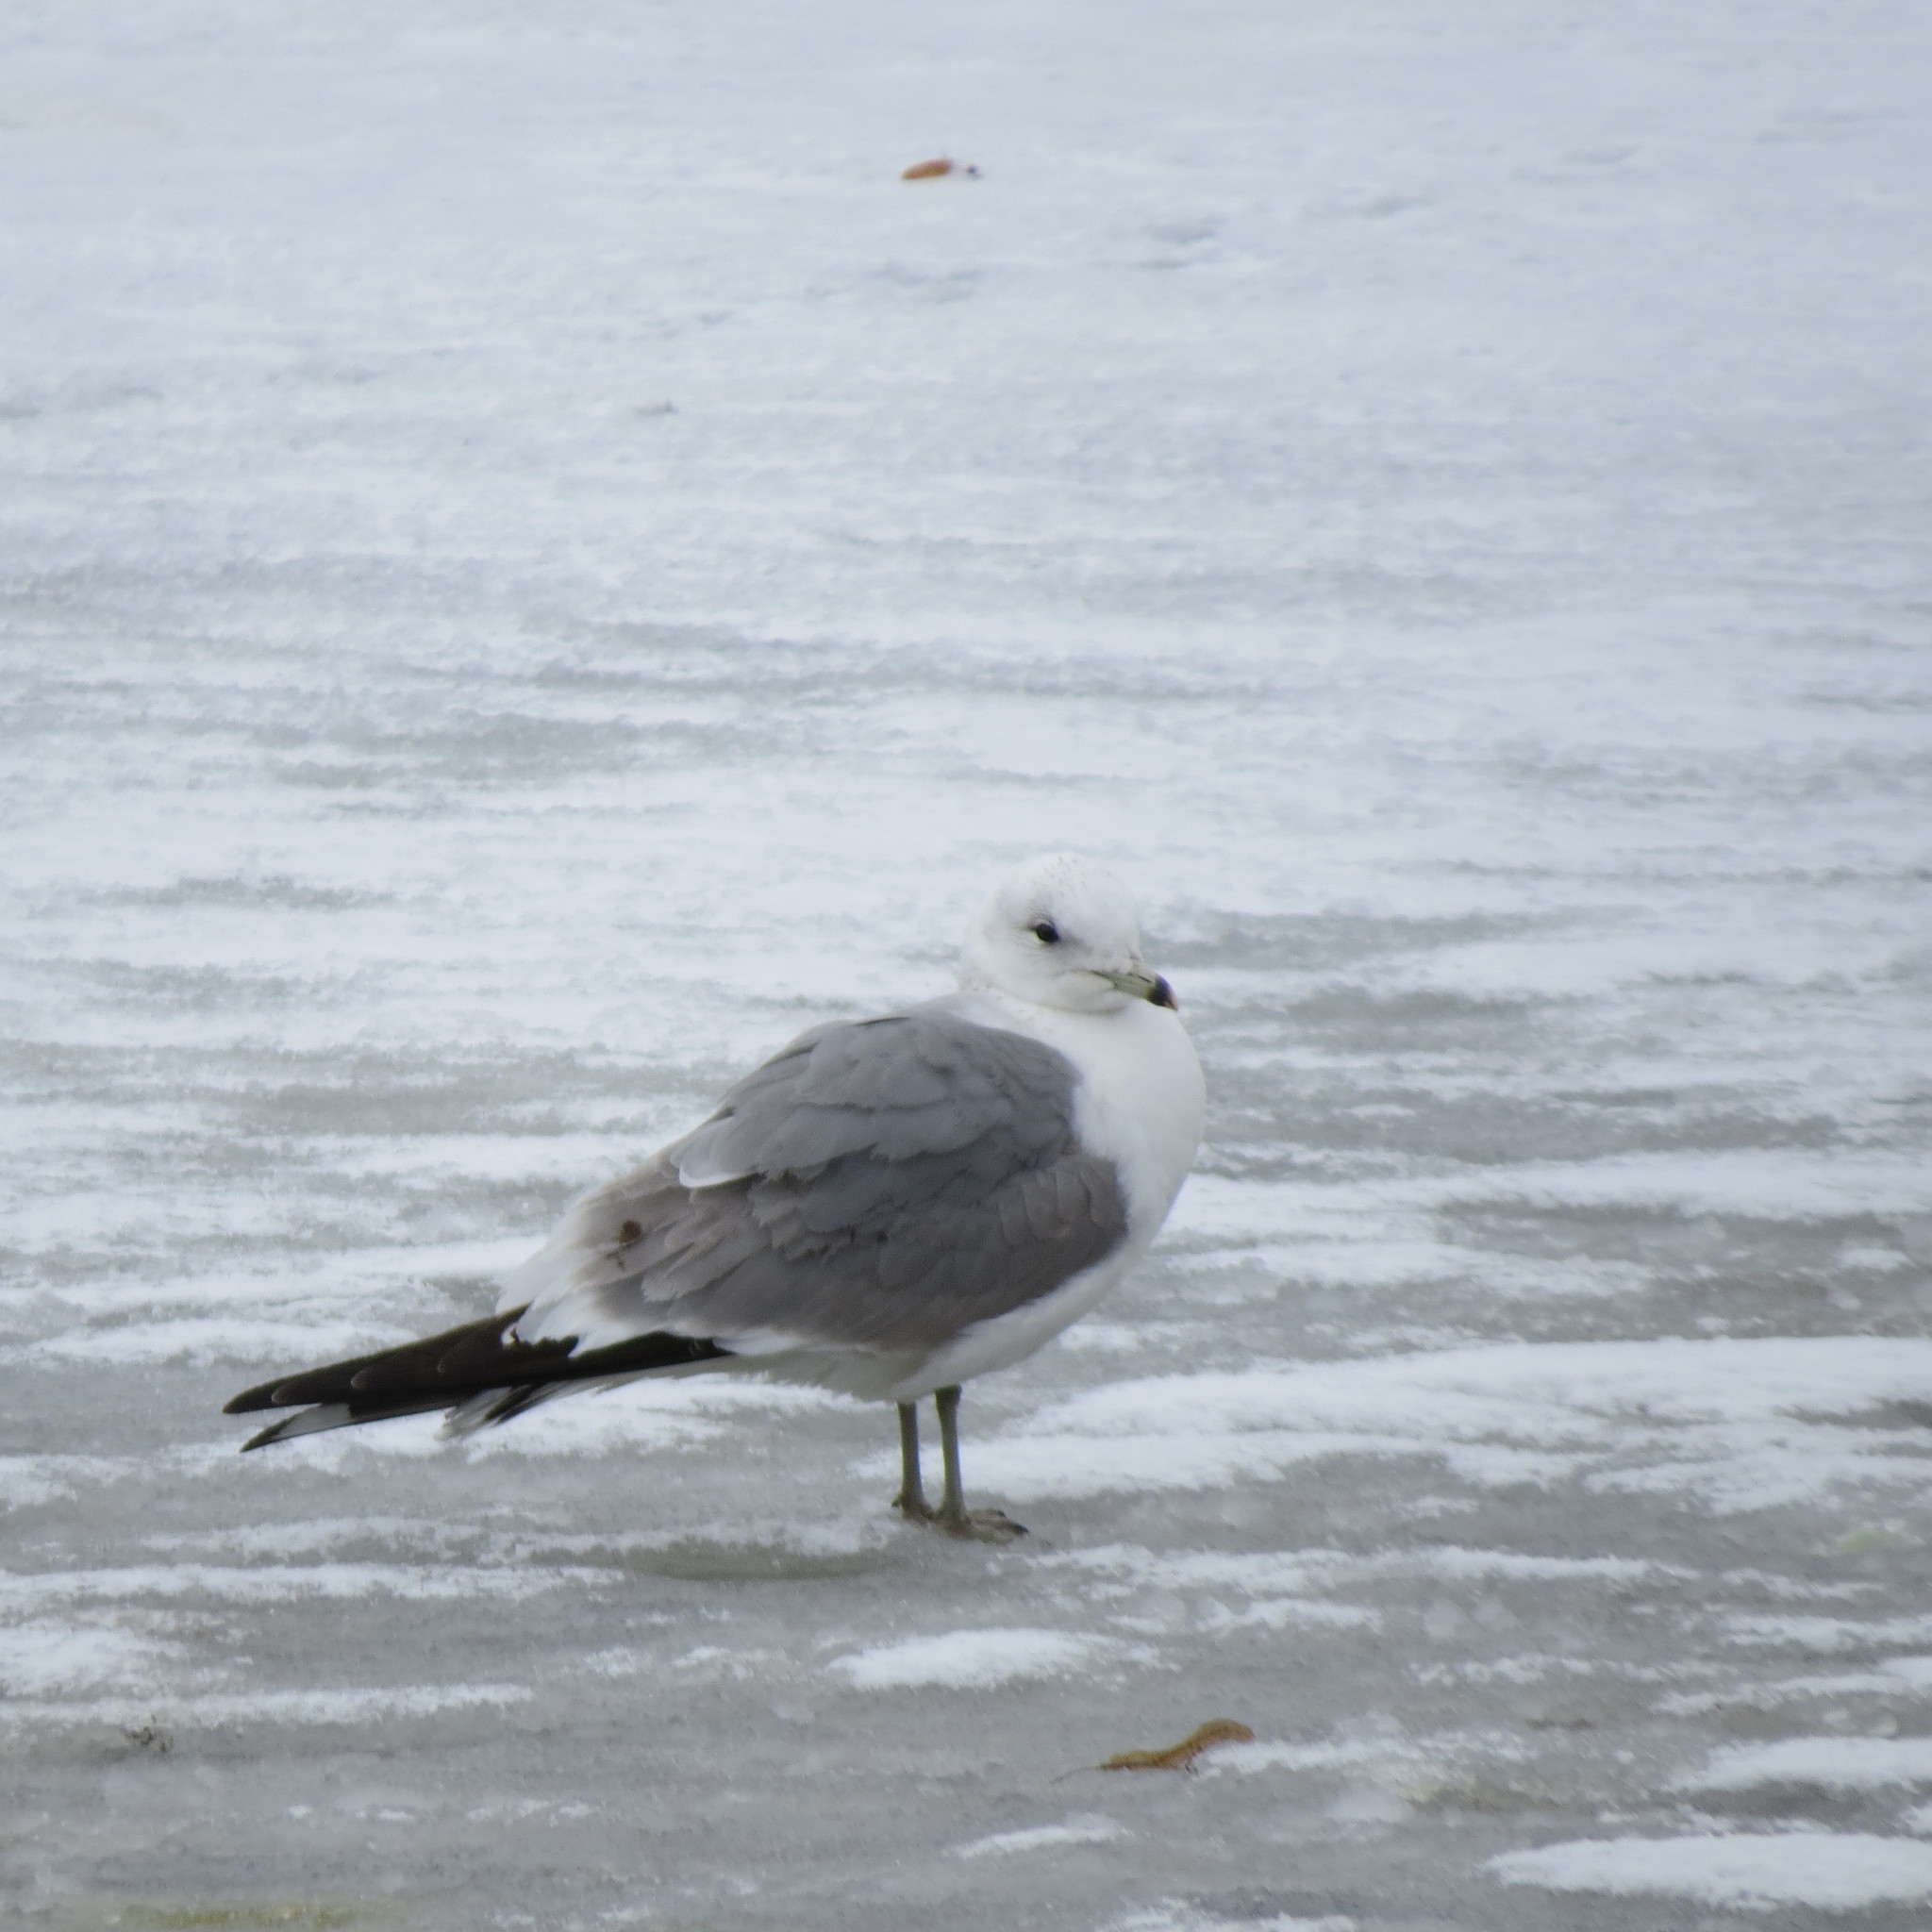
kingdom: Animalia
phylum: Chordata
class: Aves
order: Charadriiformes
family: Laridae
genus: Larus
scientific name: Larus canus
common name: Mew gull
